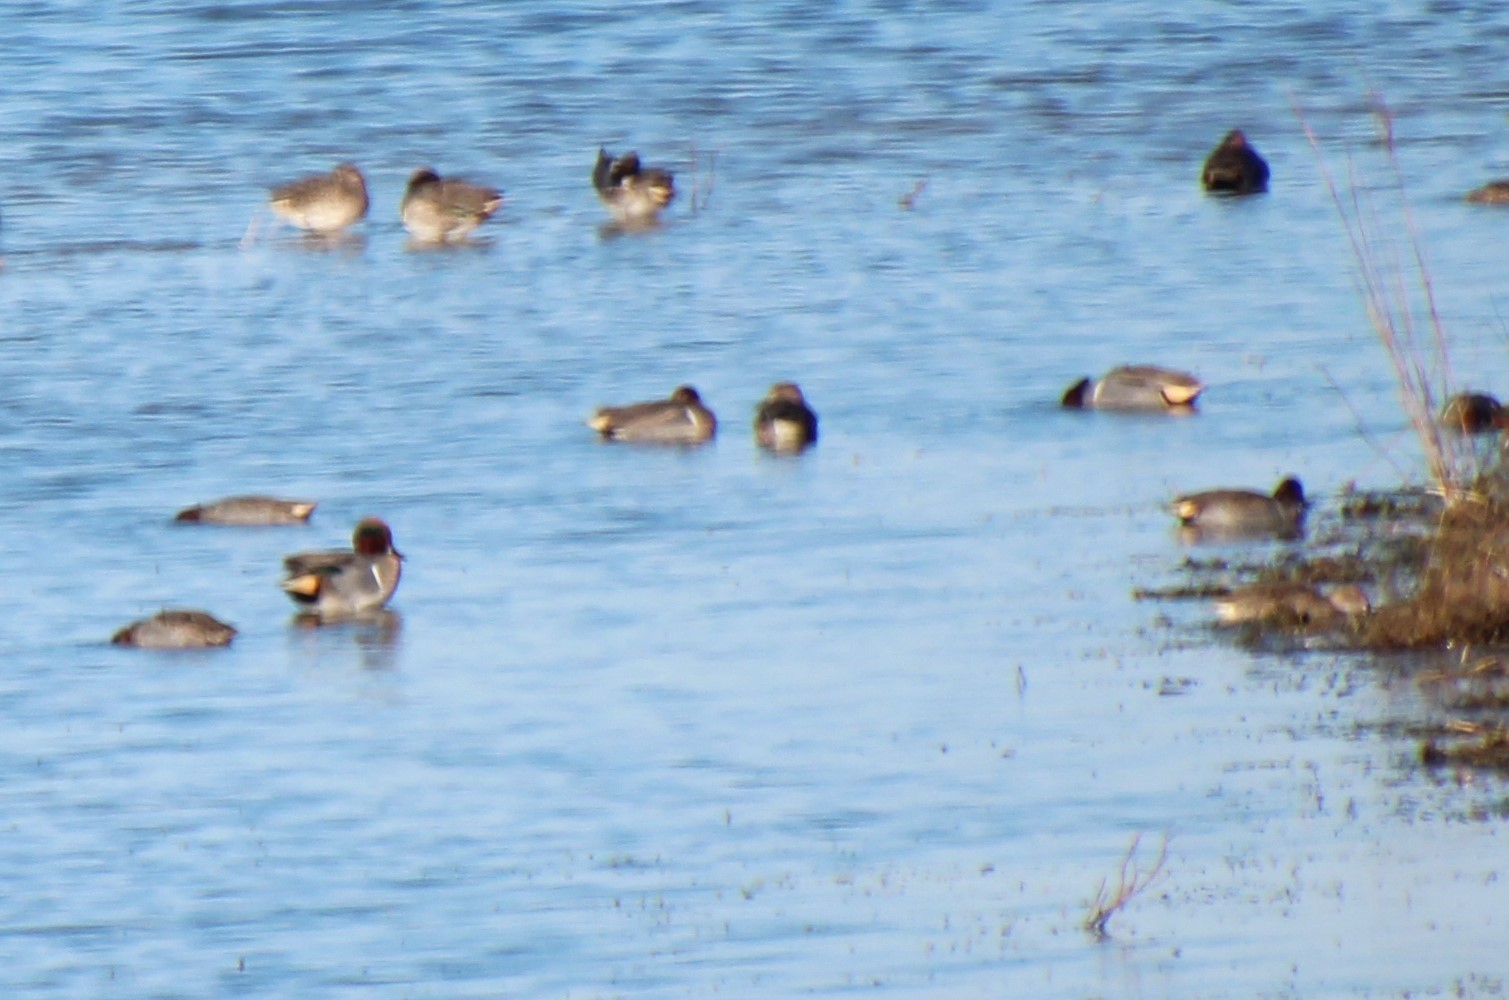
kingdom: Animalia
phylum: Chordata
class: Aves
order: Anseriformes
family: Anatidae
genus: Anas
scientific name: Anas crecca
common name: Eurasian teal
